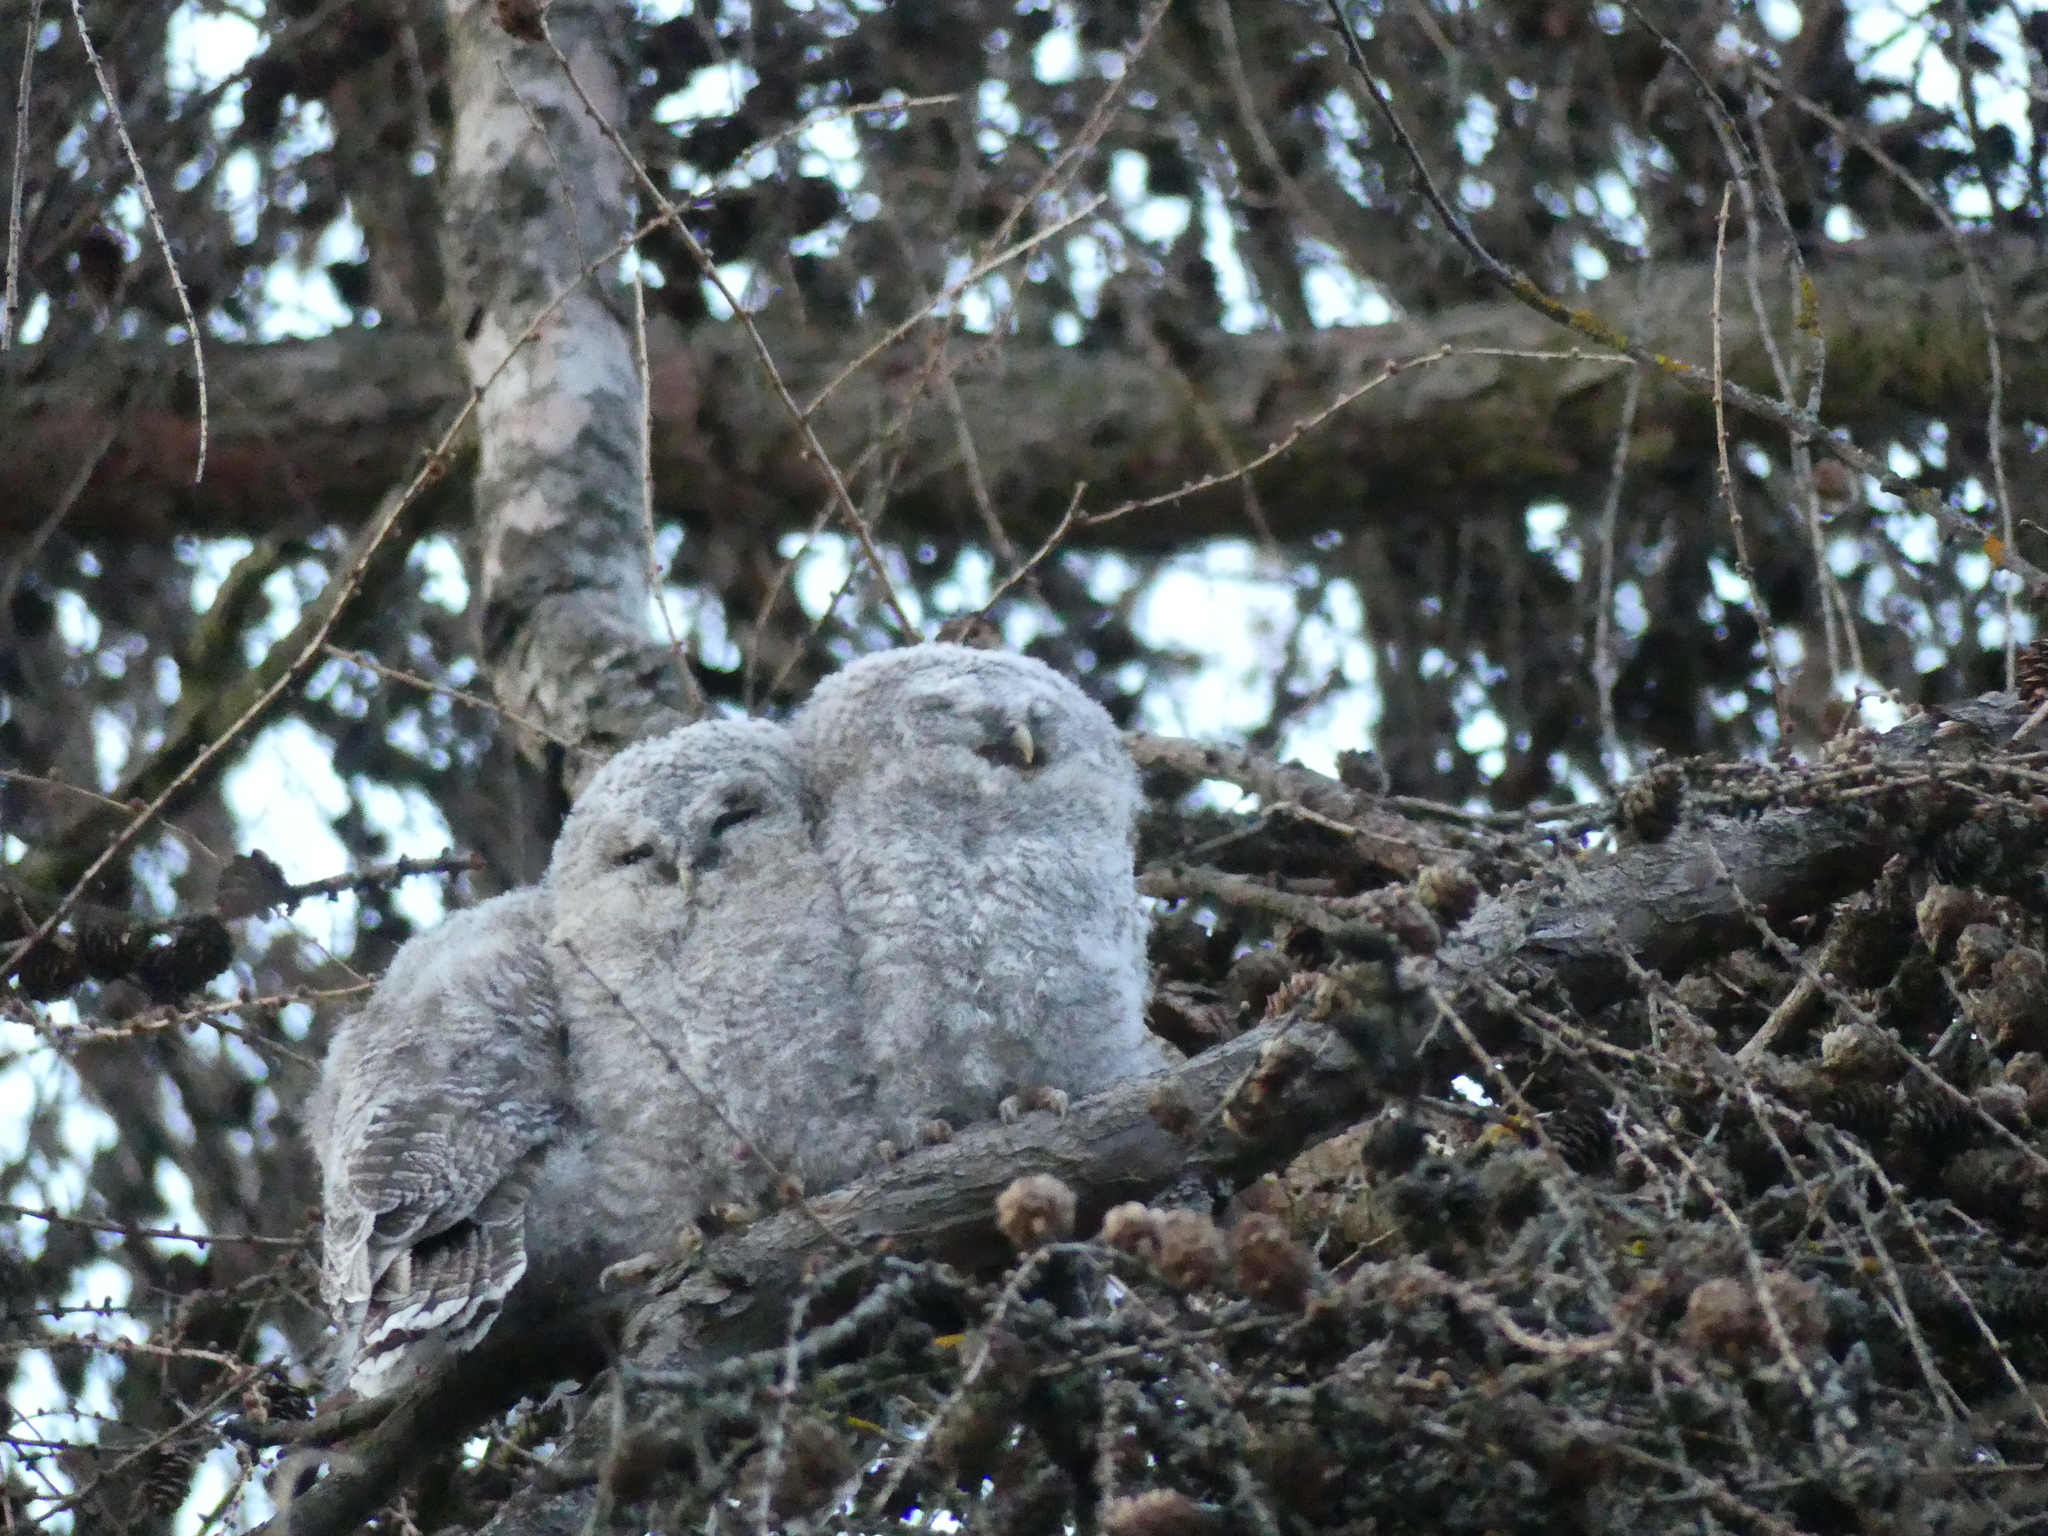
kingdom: Animalia
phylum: Chordata
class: Aves
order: Strigiformes
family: Strigidae
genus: Strix
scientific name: Strix aluco
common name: Tawny owl
